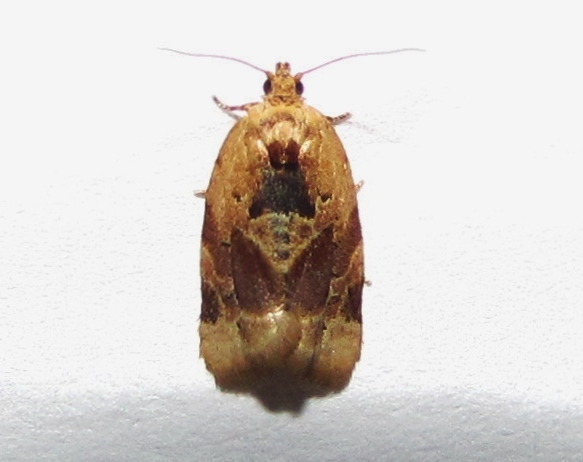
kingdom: Animalia
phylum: Arthropoda
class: Insecta
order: Lepidoptera
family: Tortricidae
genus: Argyrotaenia
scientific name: Argyrotaenia velutinana
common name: Red-banded leafroller moth
